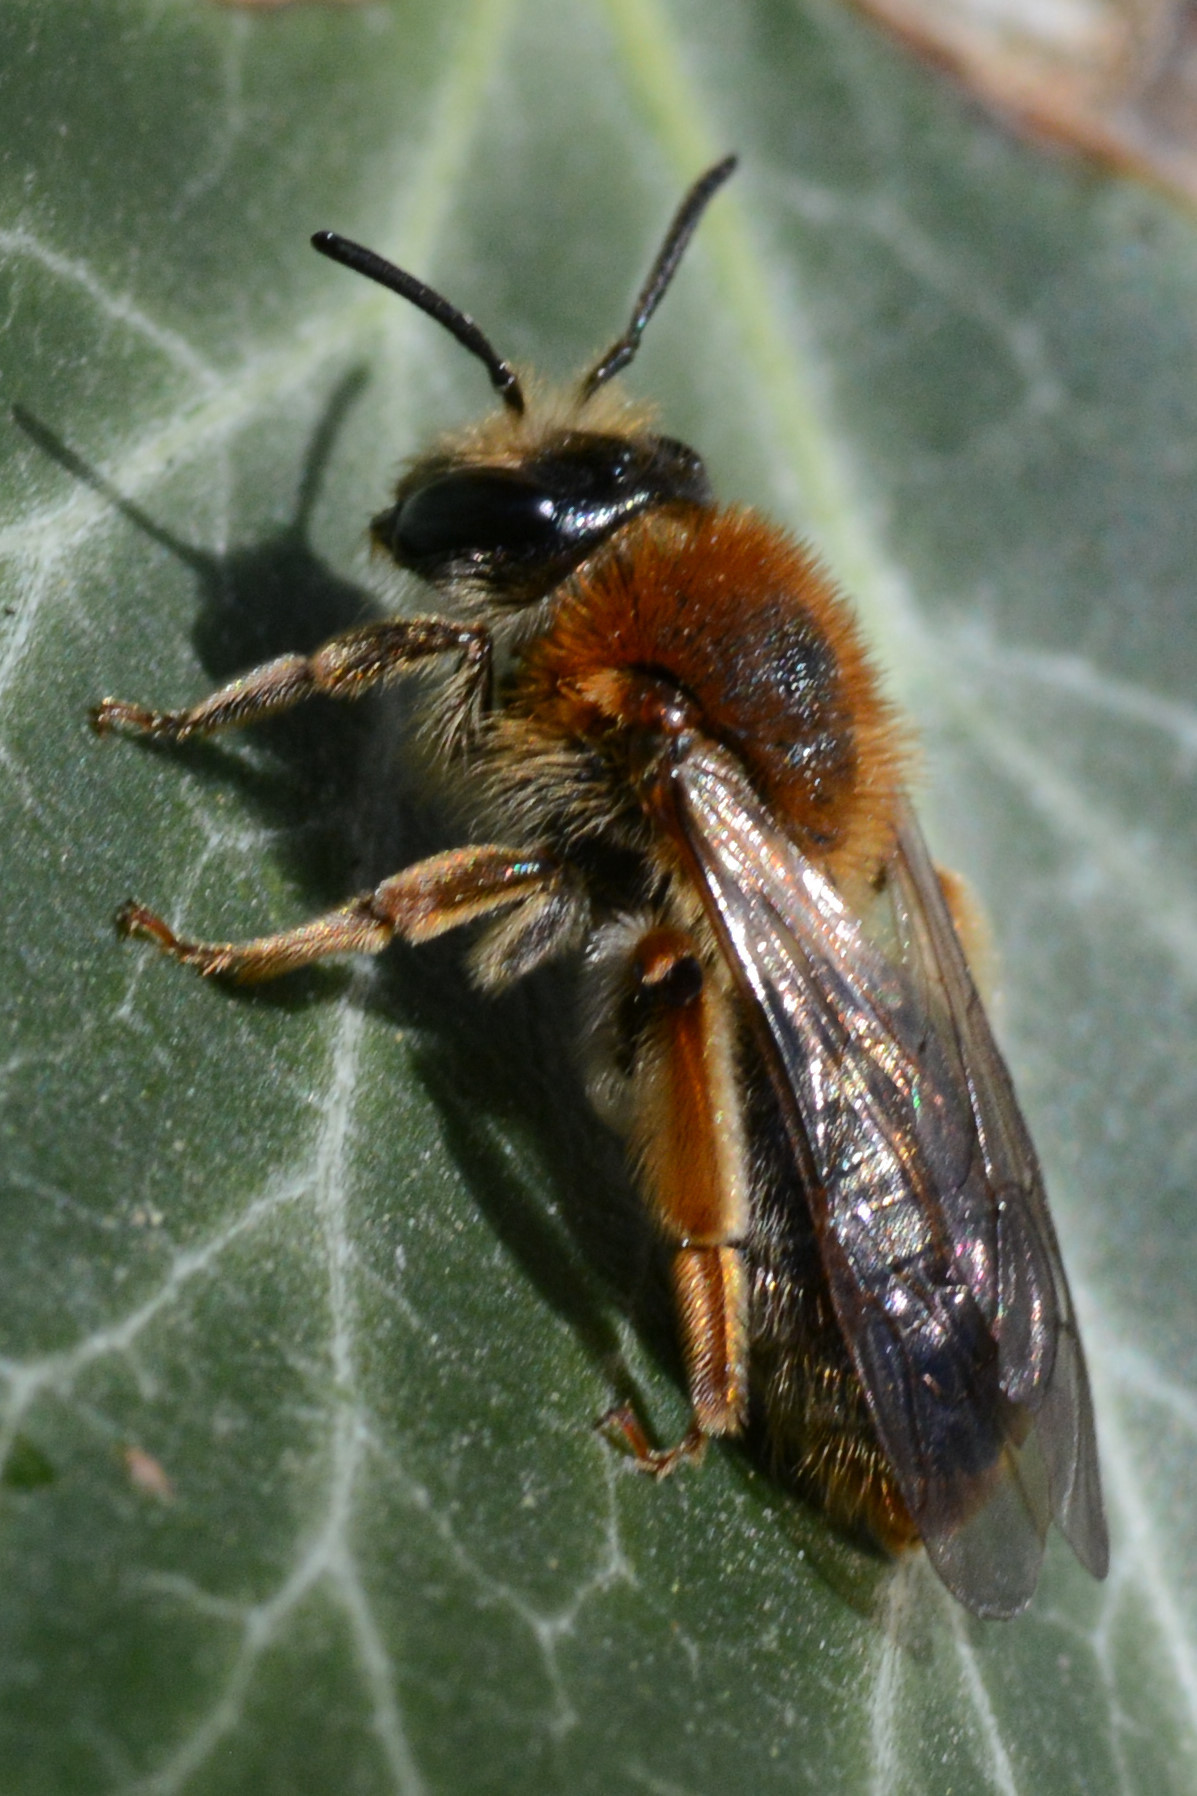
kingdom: Animalia
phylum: Arthropoda
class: Insecta
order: Hymenoptera
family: Andrenidae
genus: Andrena
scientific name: Andrena haemorrhoa
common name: Early mining bee
